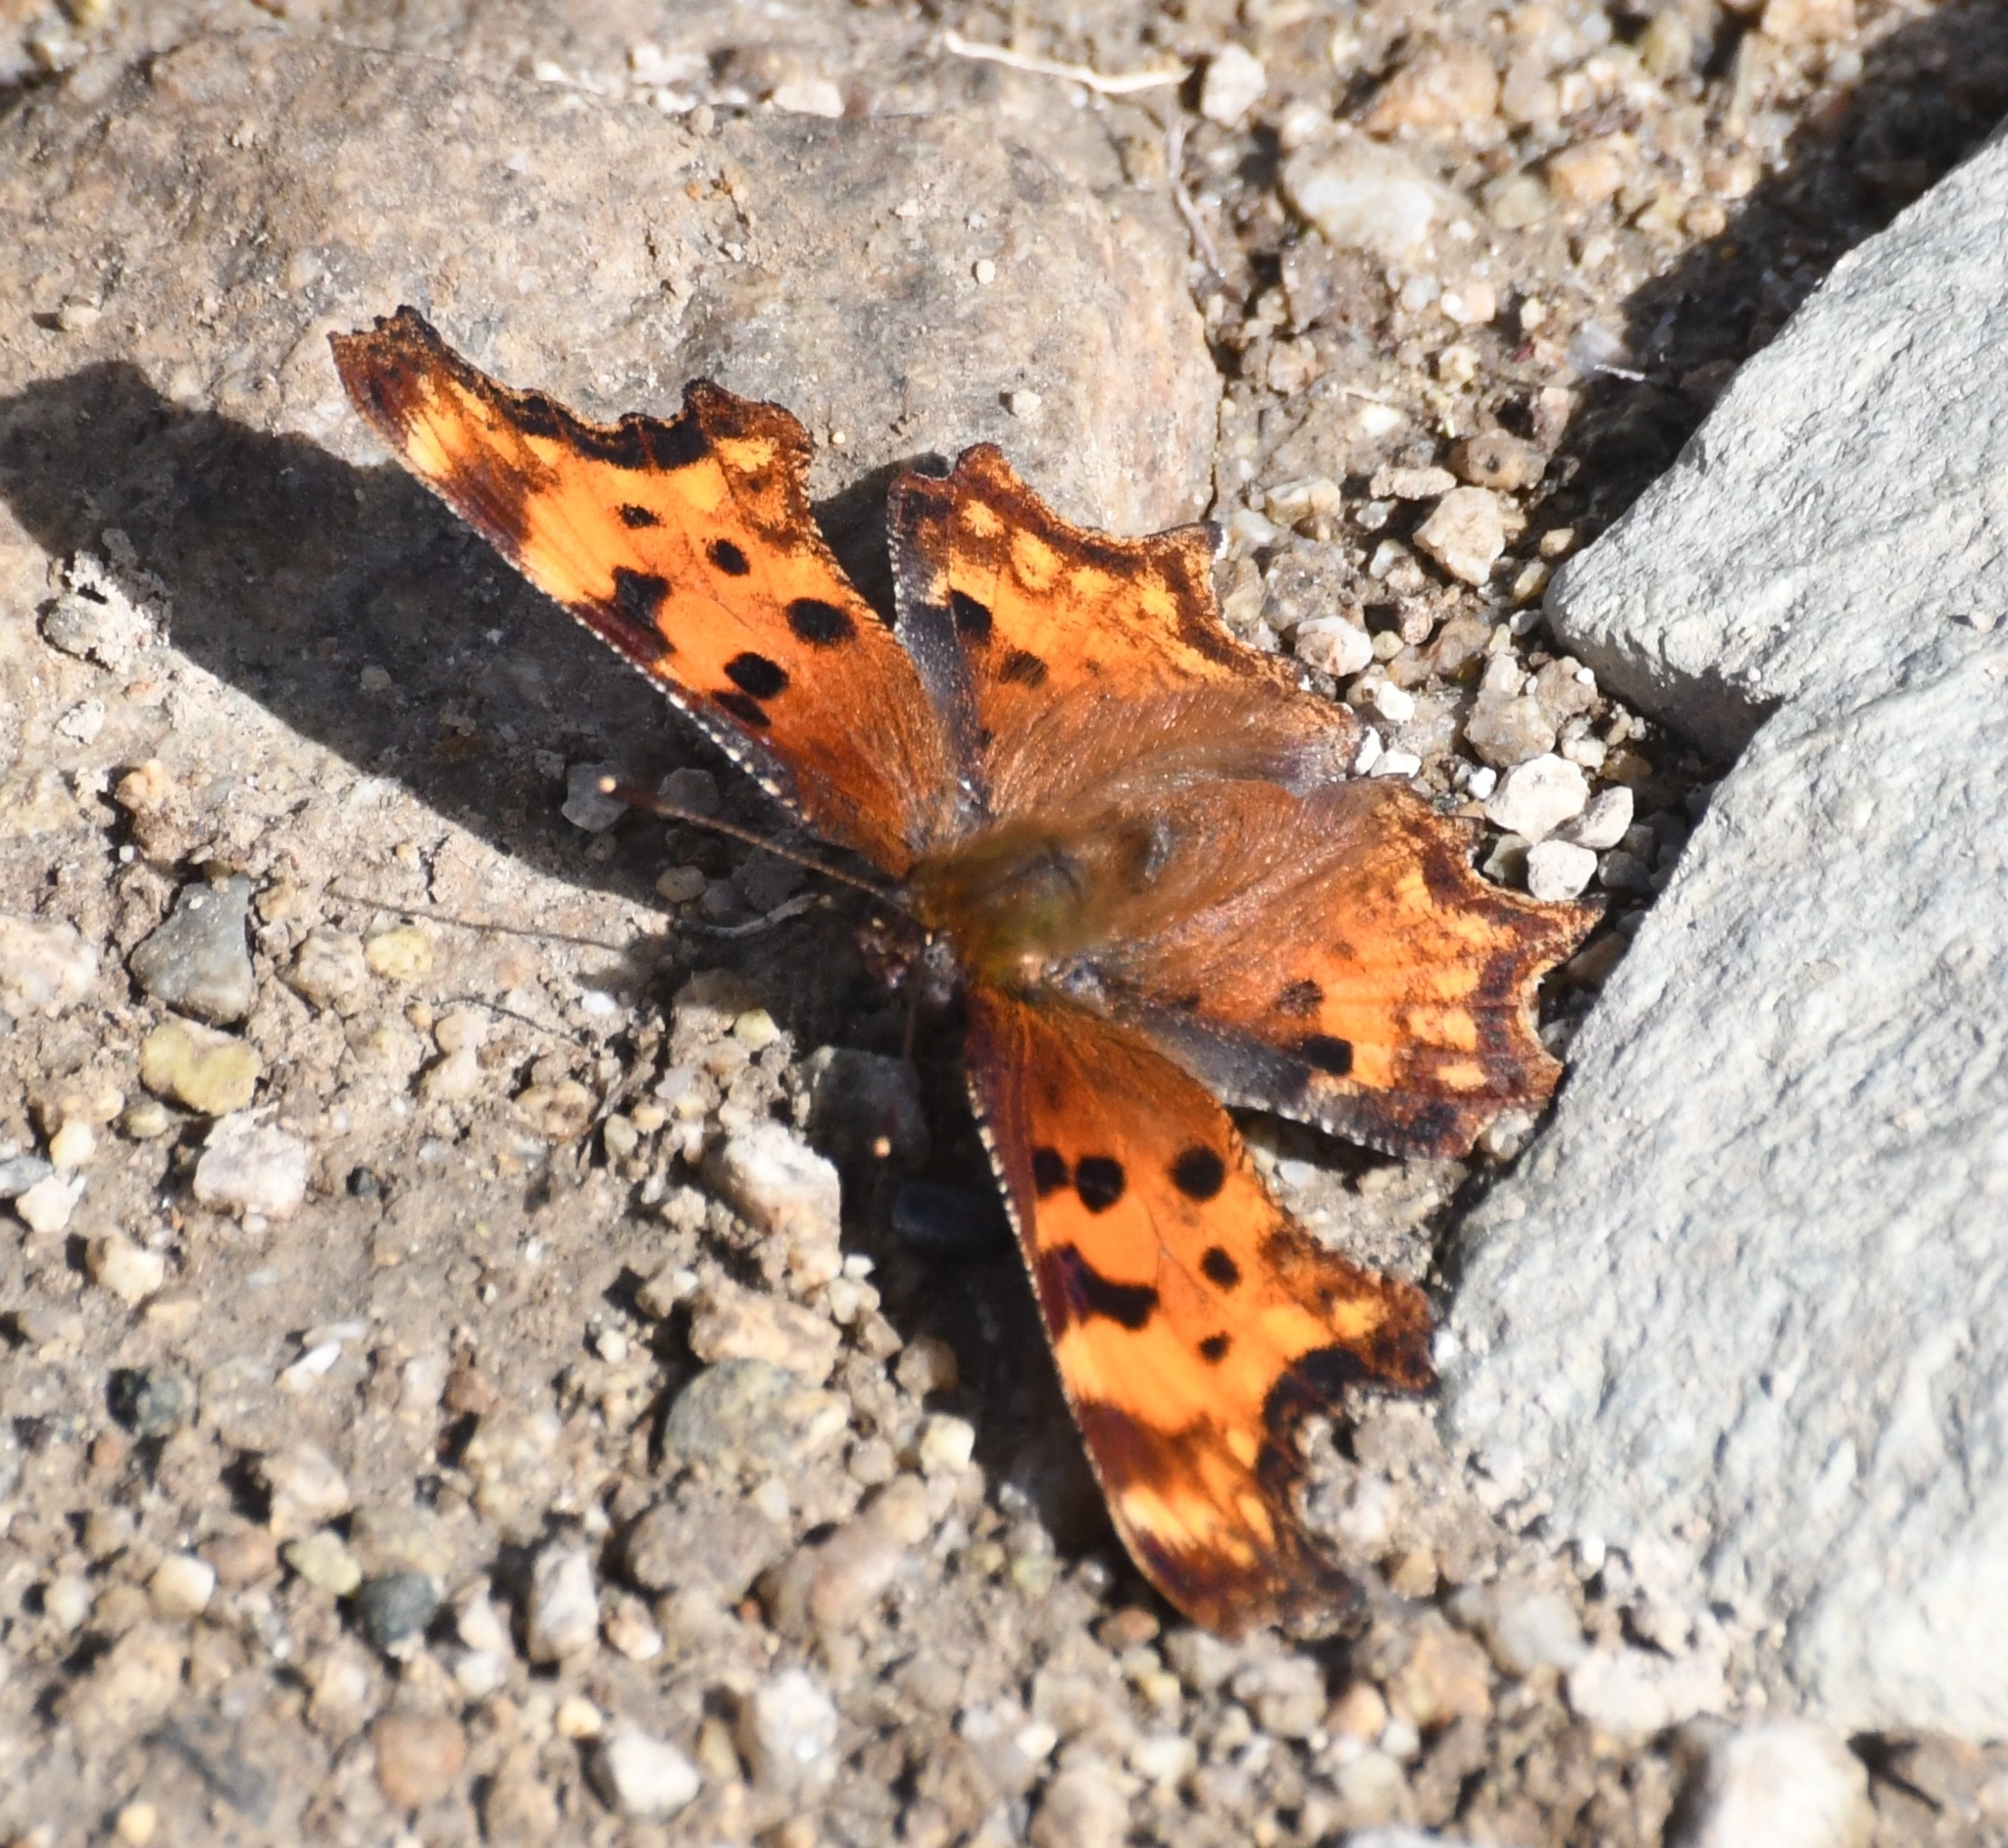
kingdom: Animalia
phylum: Arthropoda
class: Insecta
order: Lepidoptera
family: Nymphalidae
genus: Polygonia
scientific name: Polygonia gracilis
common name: Hoary comma
